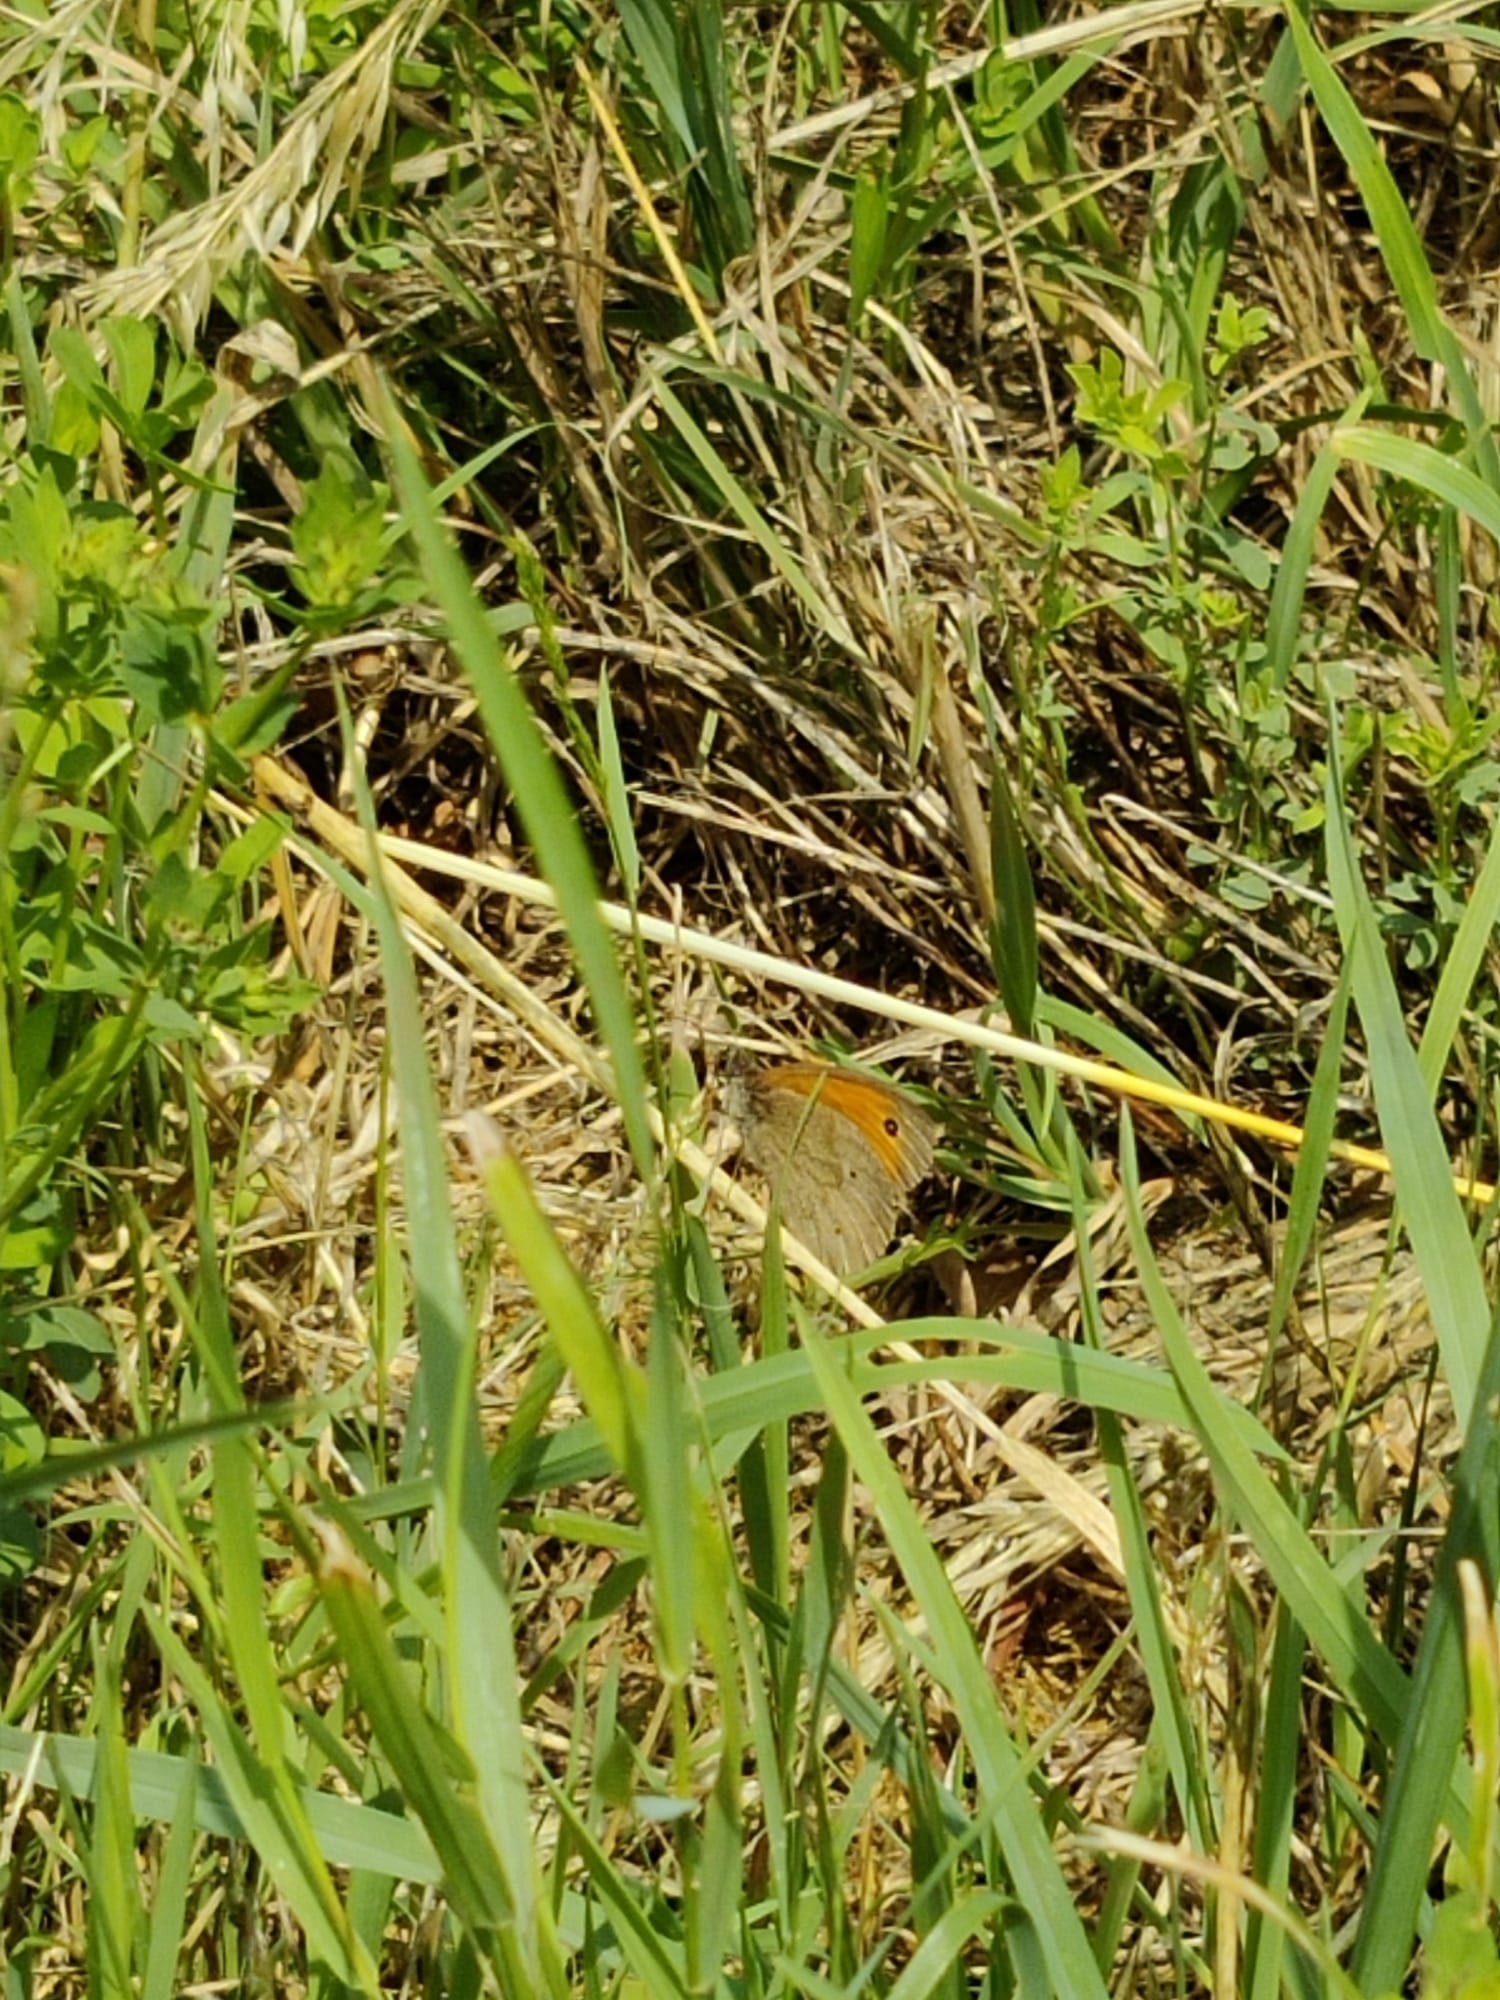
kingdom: Animalia
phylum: Arthropoda
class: Insecta
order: Lepidoptera
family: Nymphalidae
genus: Maniola
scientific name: Maniola jurtina
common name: Meadow brown
